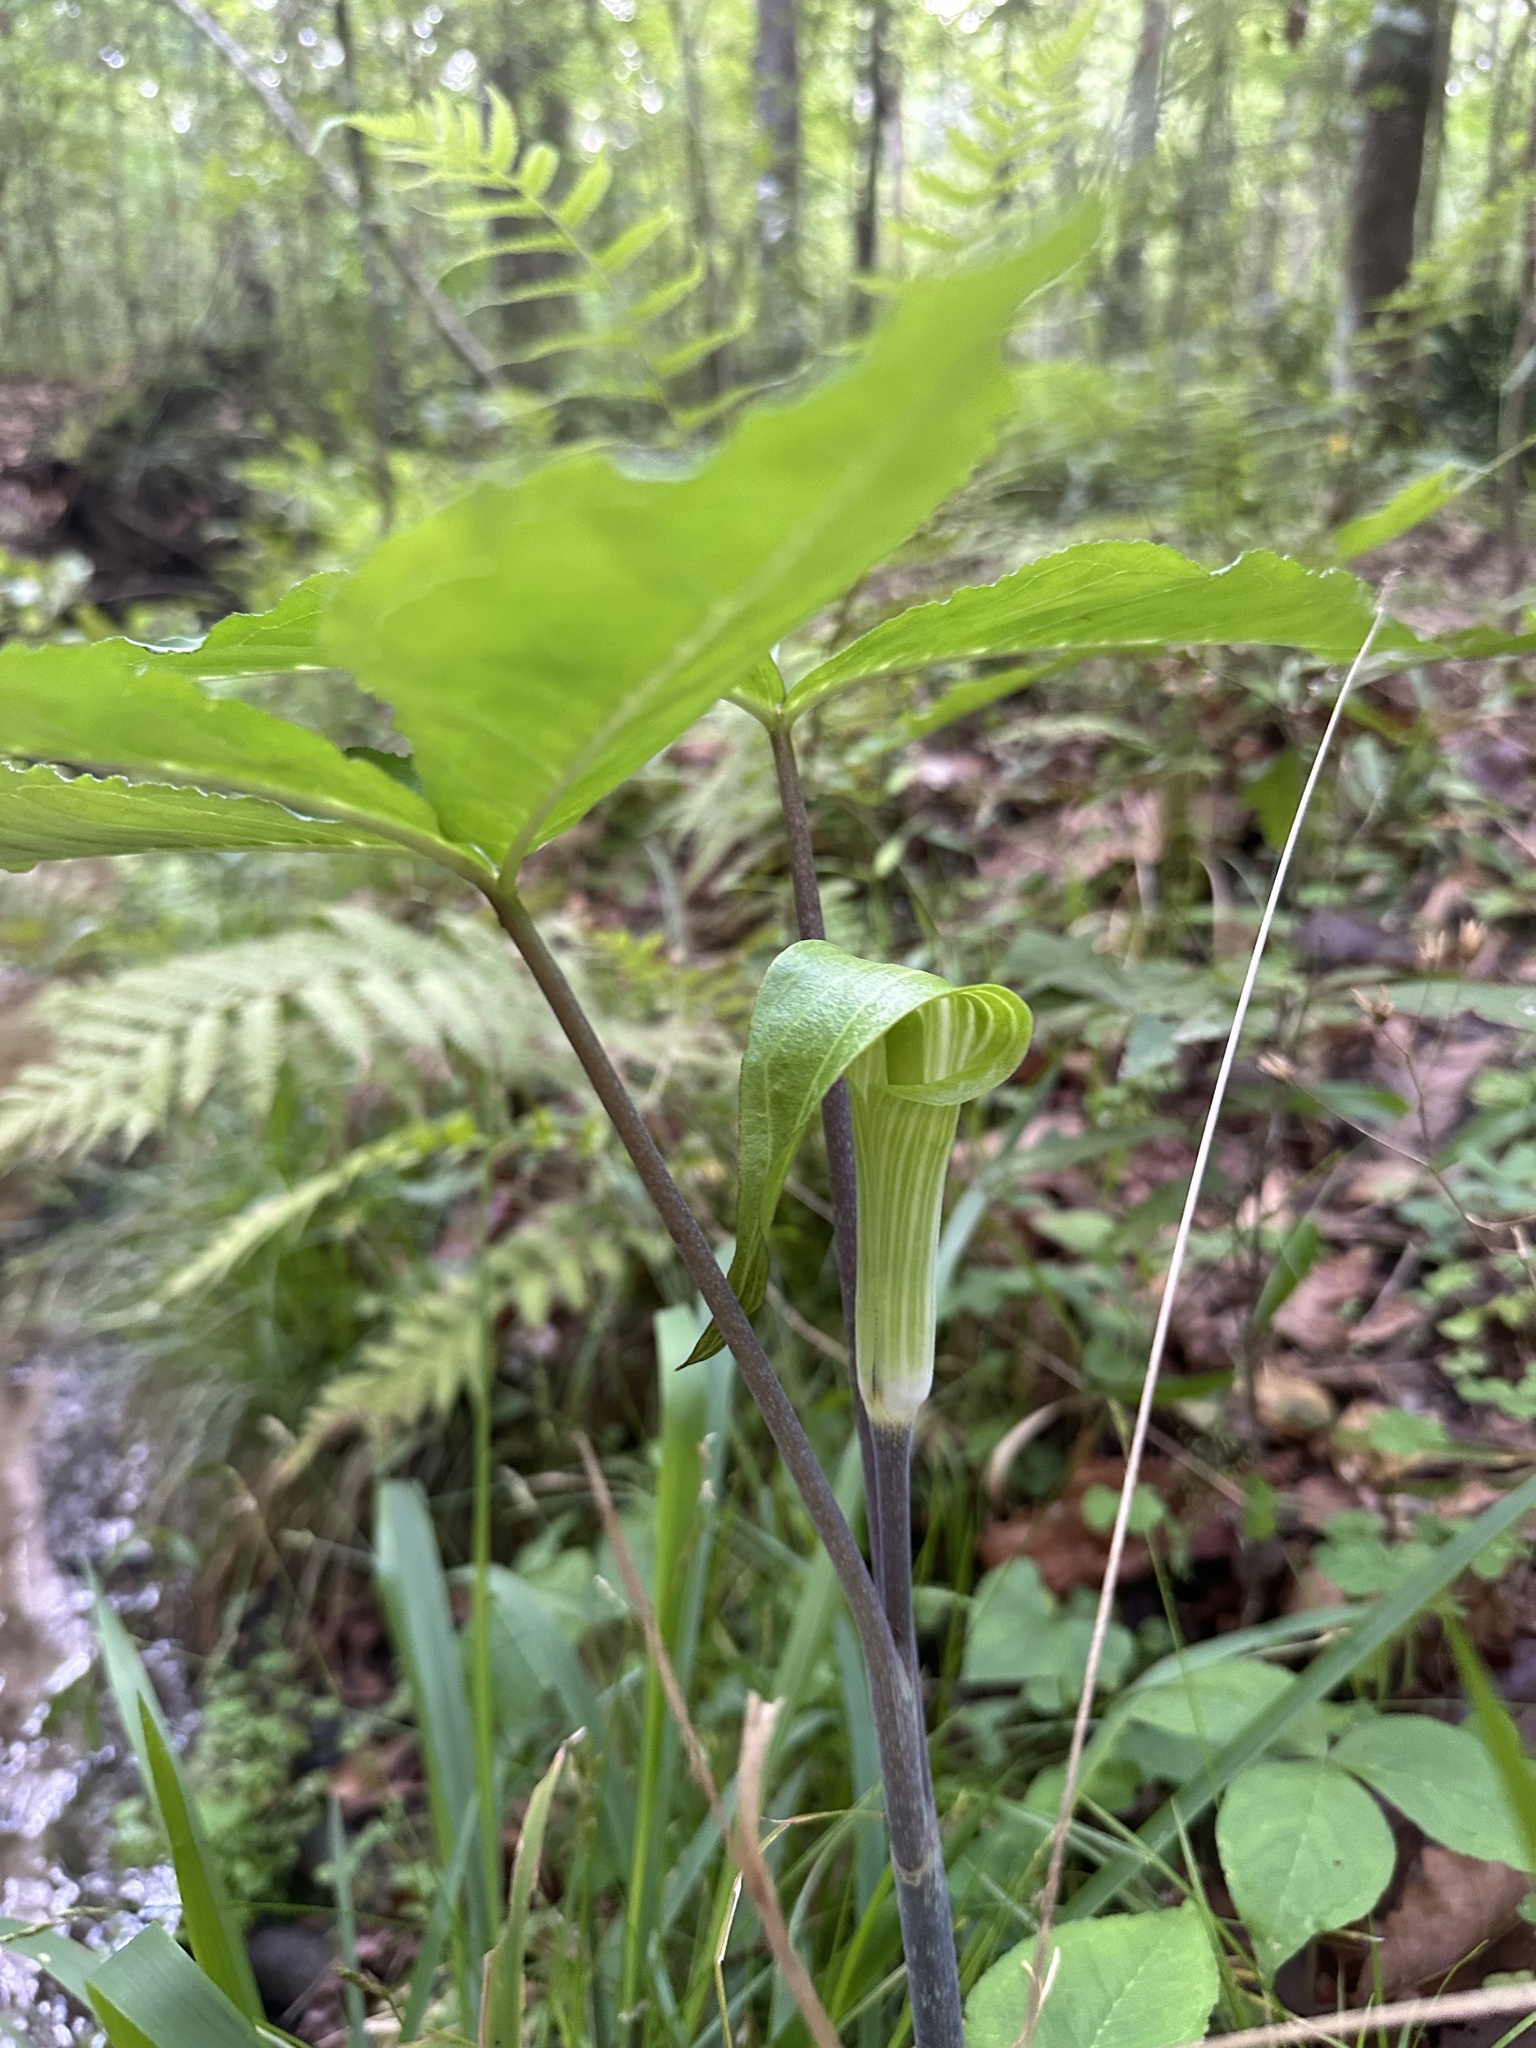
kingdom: Plantae
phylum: Tracheophyta
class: Liliopsida
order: Alismatales
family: Araceae
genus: Arisaema
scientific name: Arisaema acuminatum
